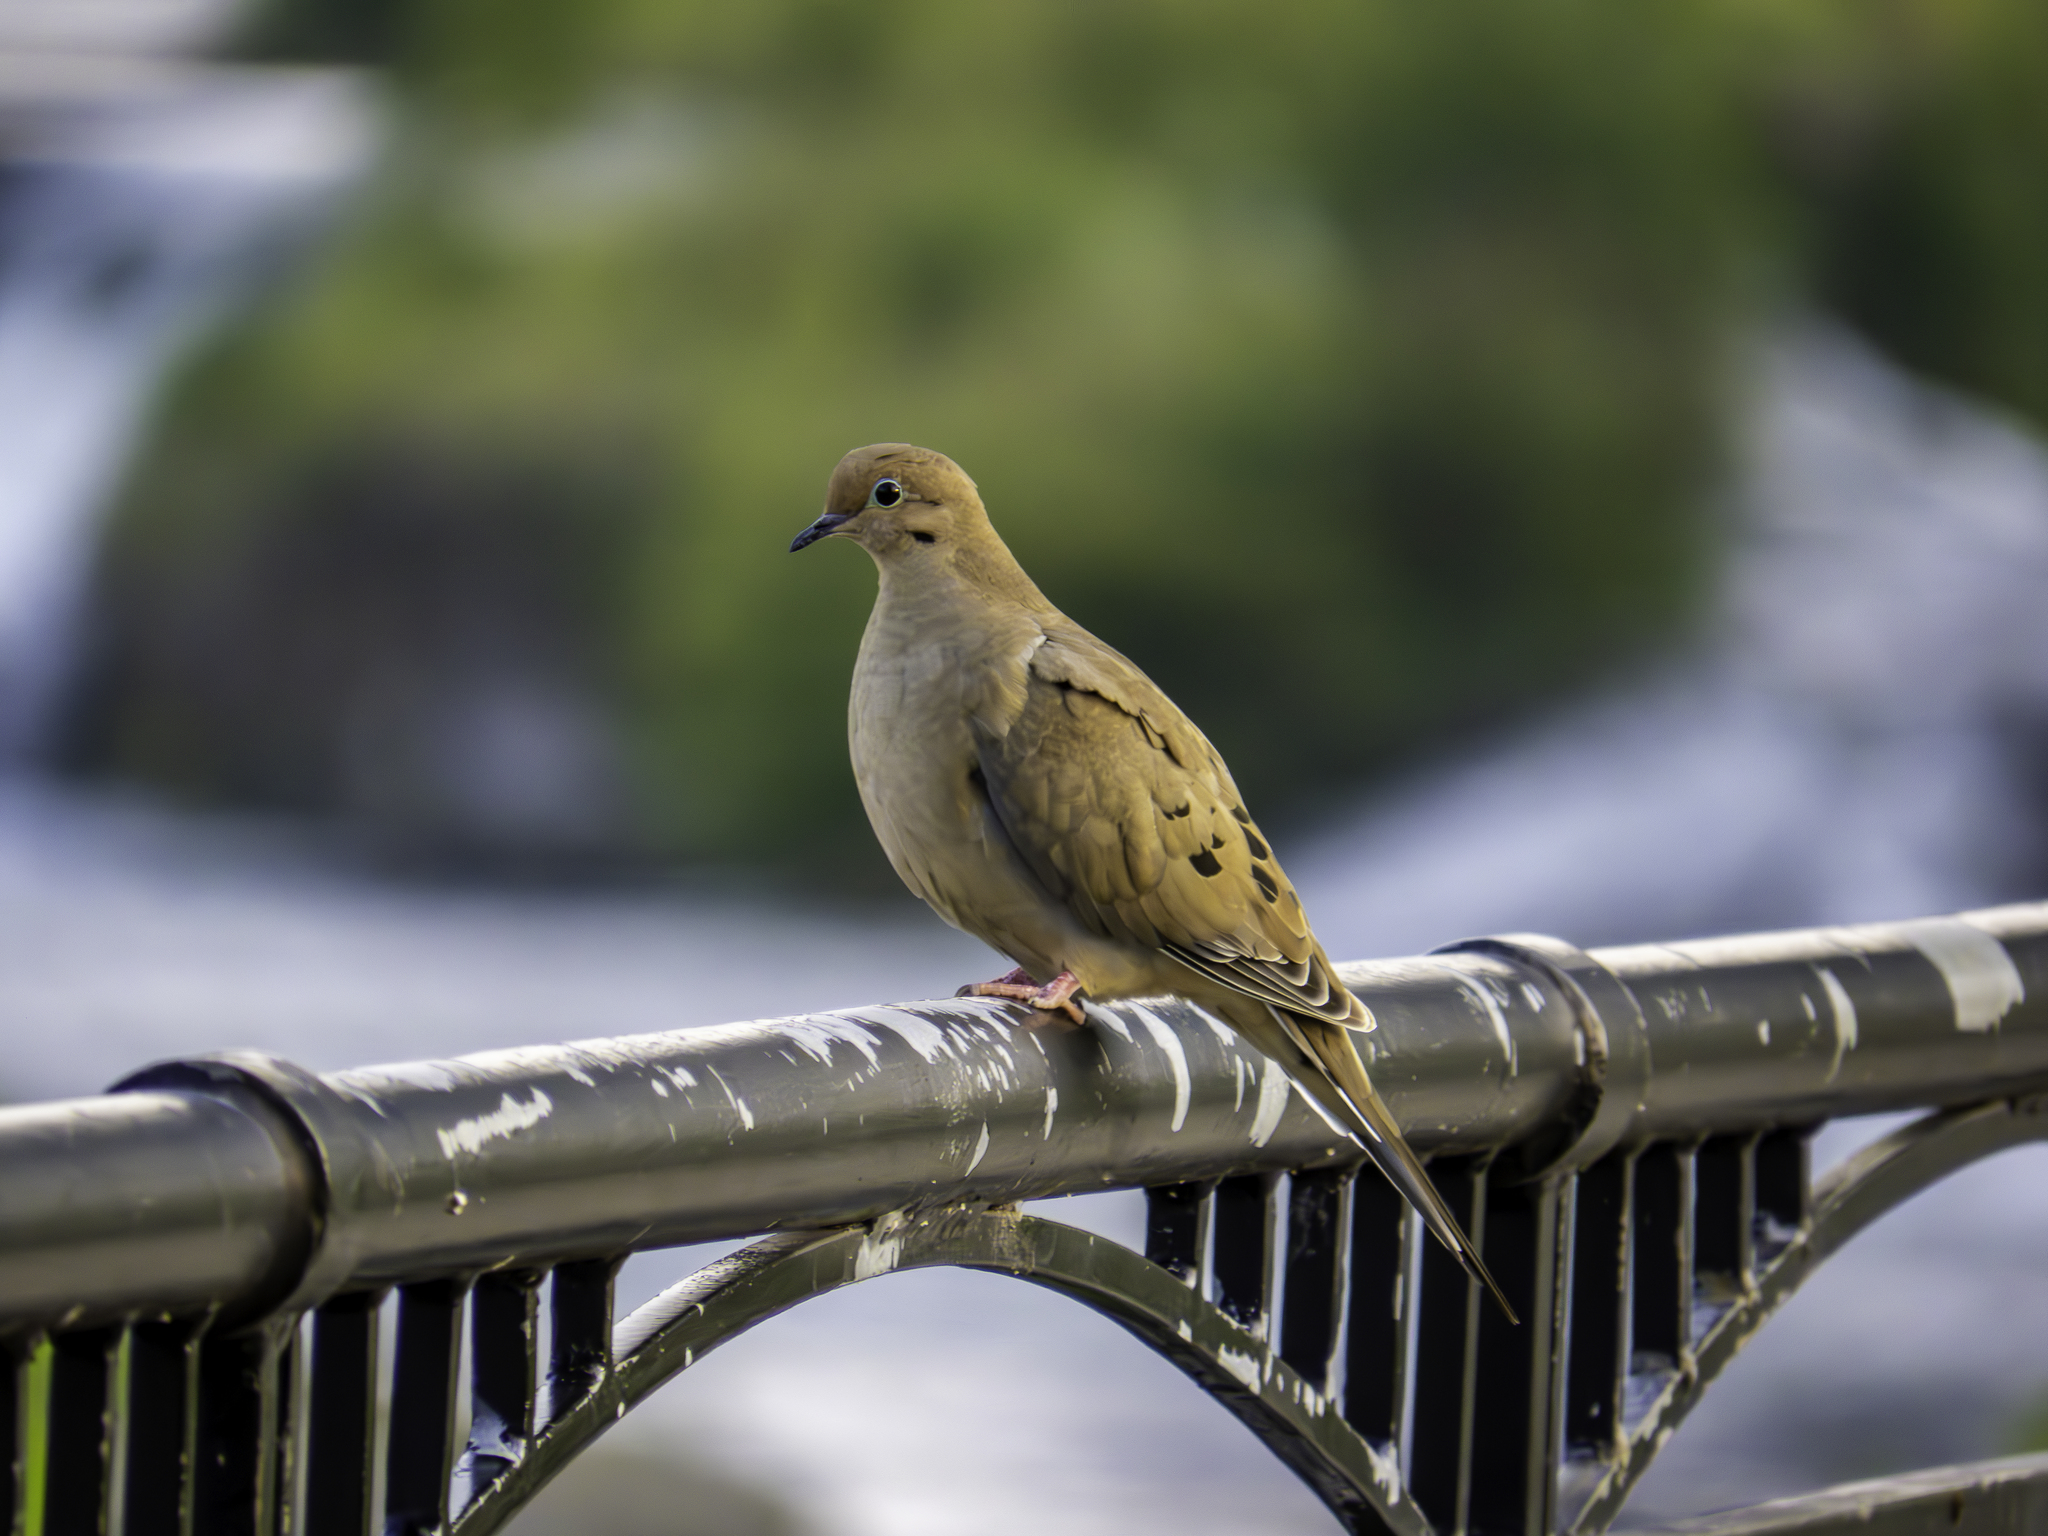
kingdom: Animalia
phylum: Chordata
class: Aves
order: Columbiformes
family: Columbidae
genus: Zenaida
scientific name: Zenaida macroura
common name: Mourning dove
